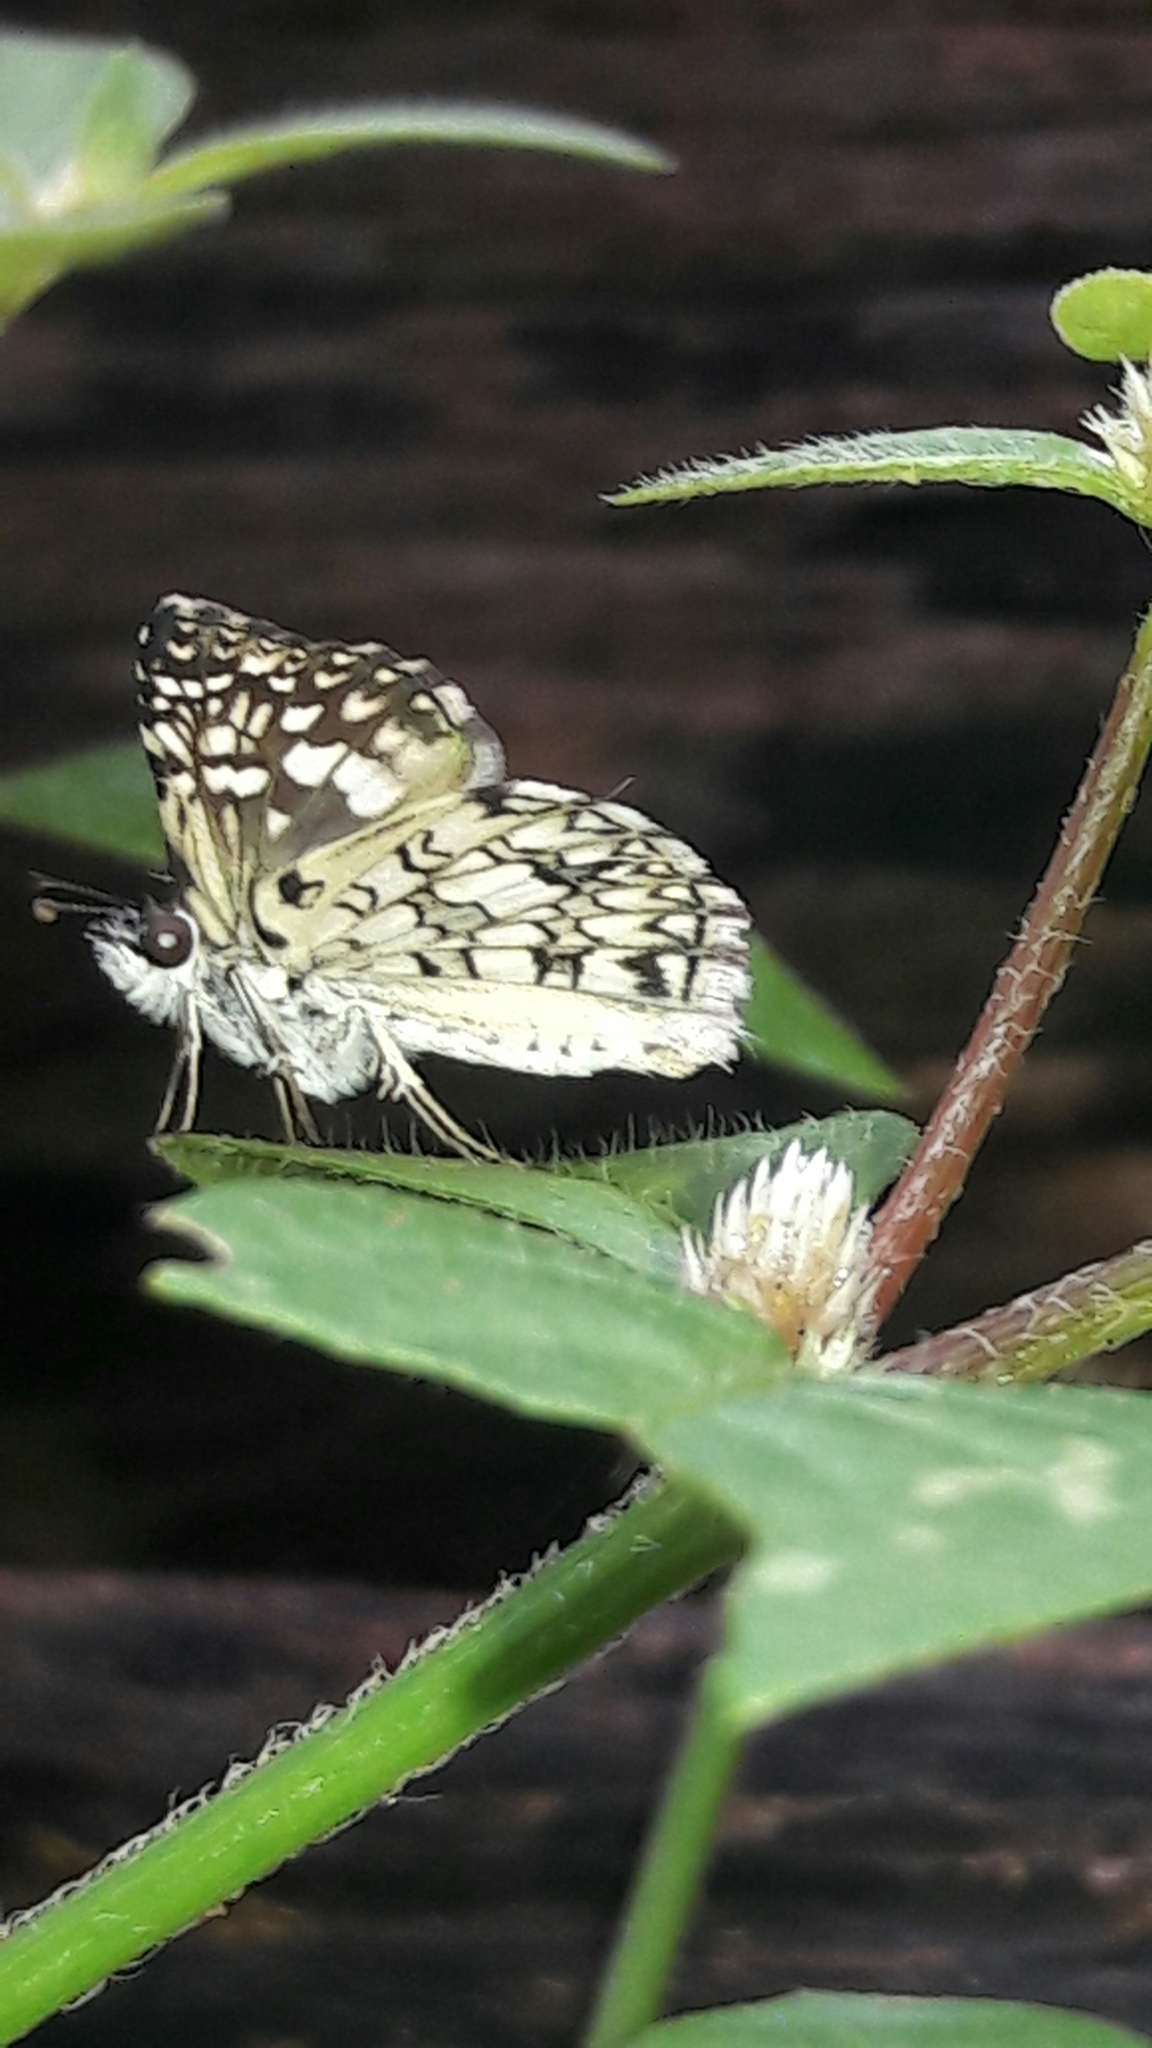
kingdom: Animalia
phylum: Arthropoda
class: Insecta
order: Lepidoptera
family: Hesperiidae
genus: Pyrgus
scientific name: Pyrgus oileus
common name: Tropical checkered-skipper
